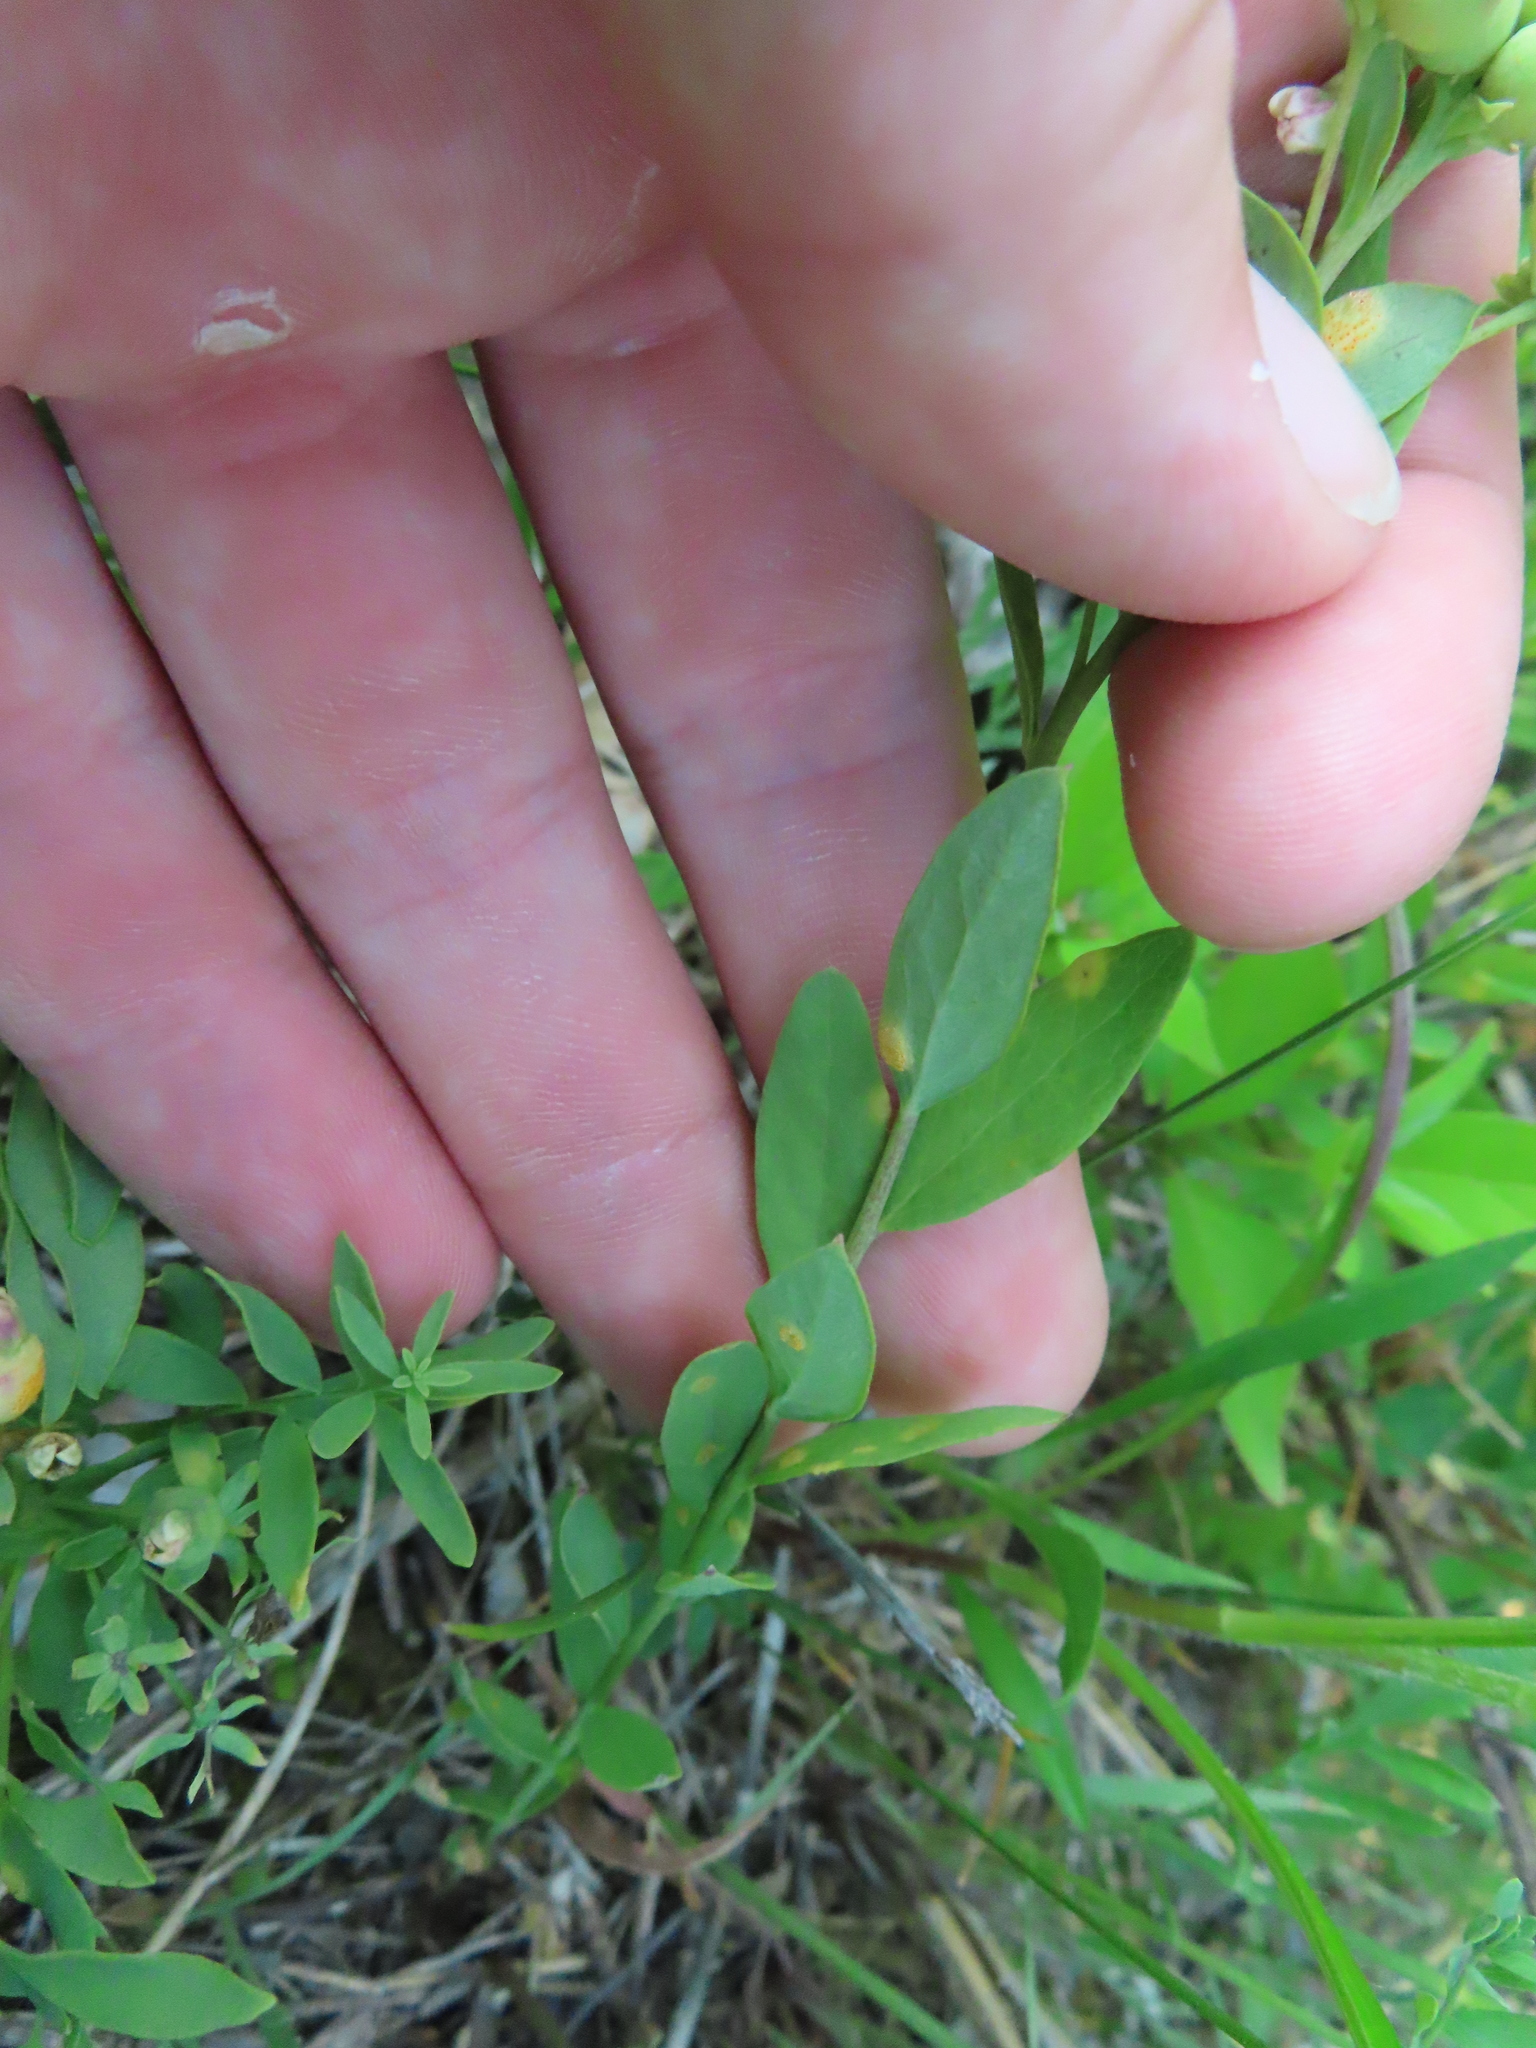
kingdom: Plantae
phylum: Tracheophyta
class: Magnoliopsida
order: Santalales
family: Comandraceae
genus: Comandra
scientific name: Comandra umbellata
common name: Bastard toadflax
